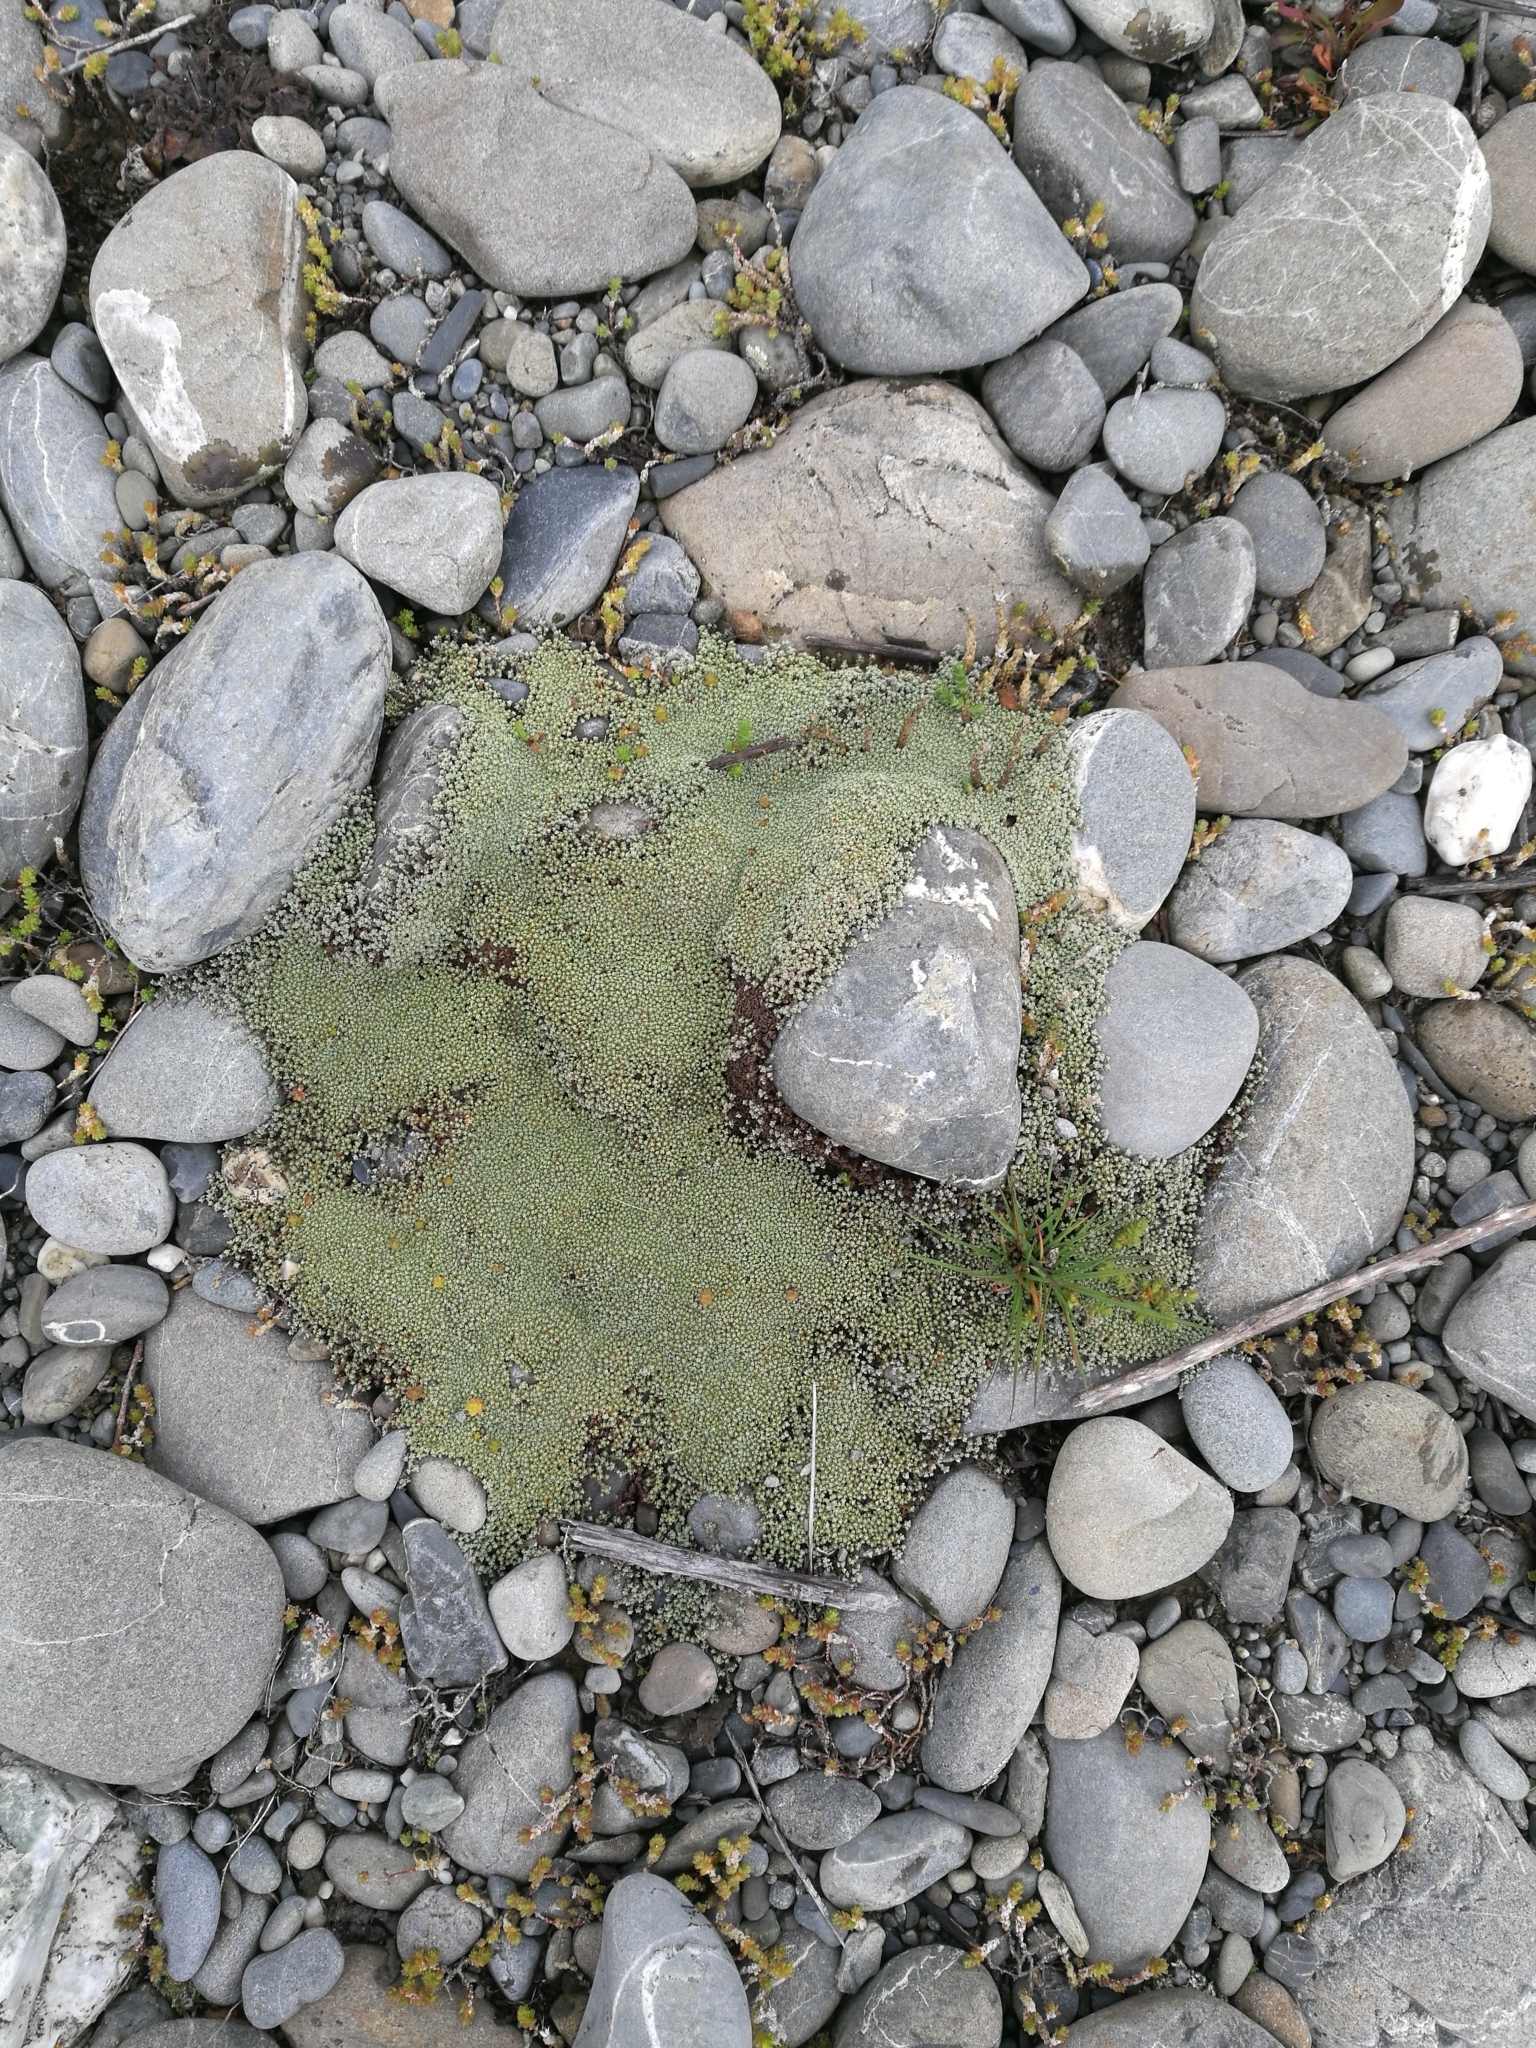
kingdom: Plantae
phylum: Tracheophyta
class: Magnoliopsida
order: Asterales
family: Asteraceae
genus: Raoulia
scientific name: Raoulia australis
